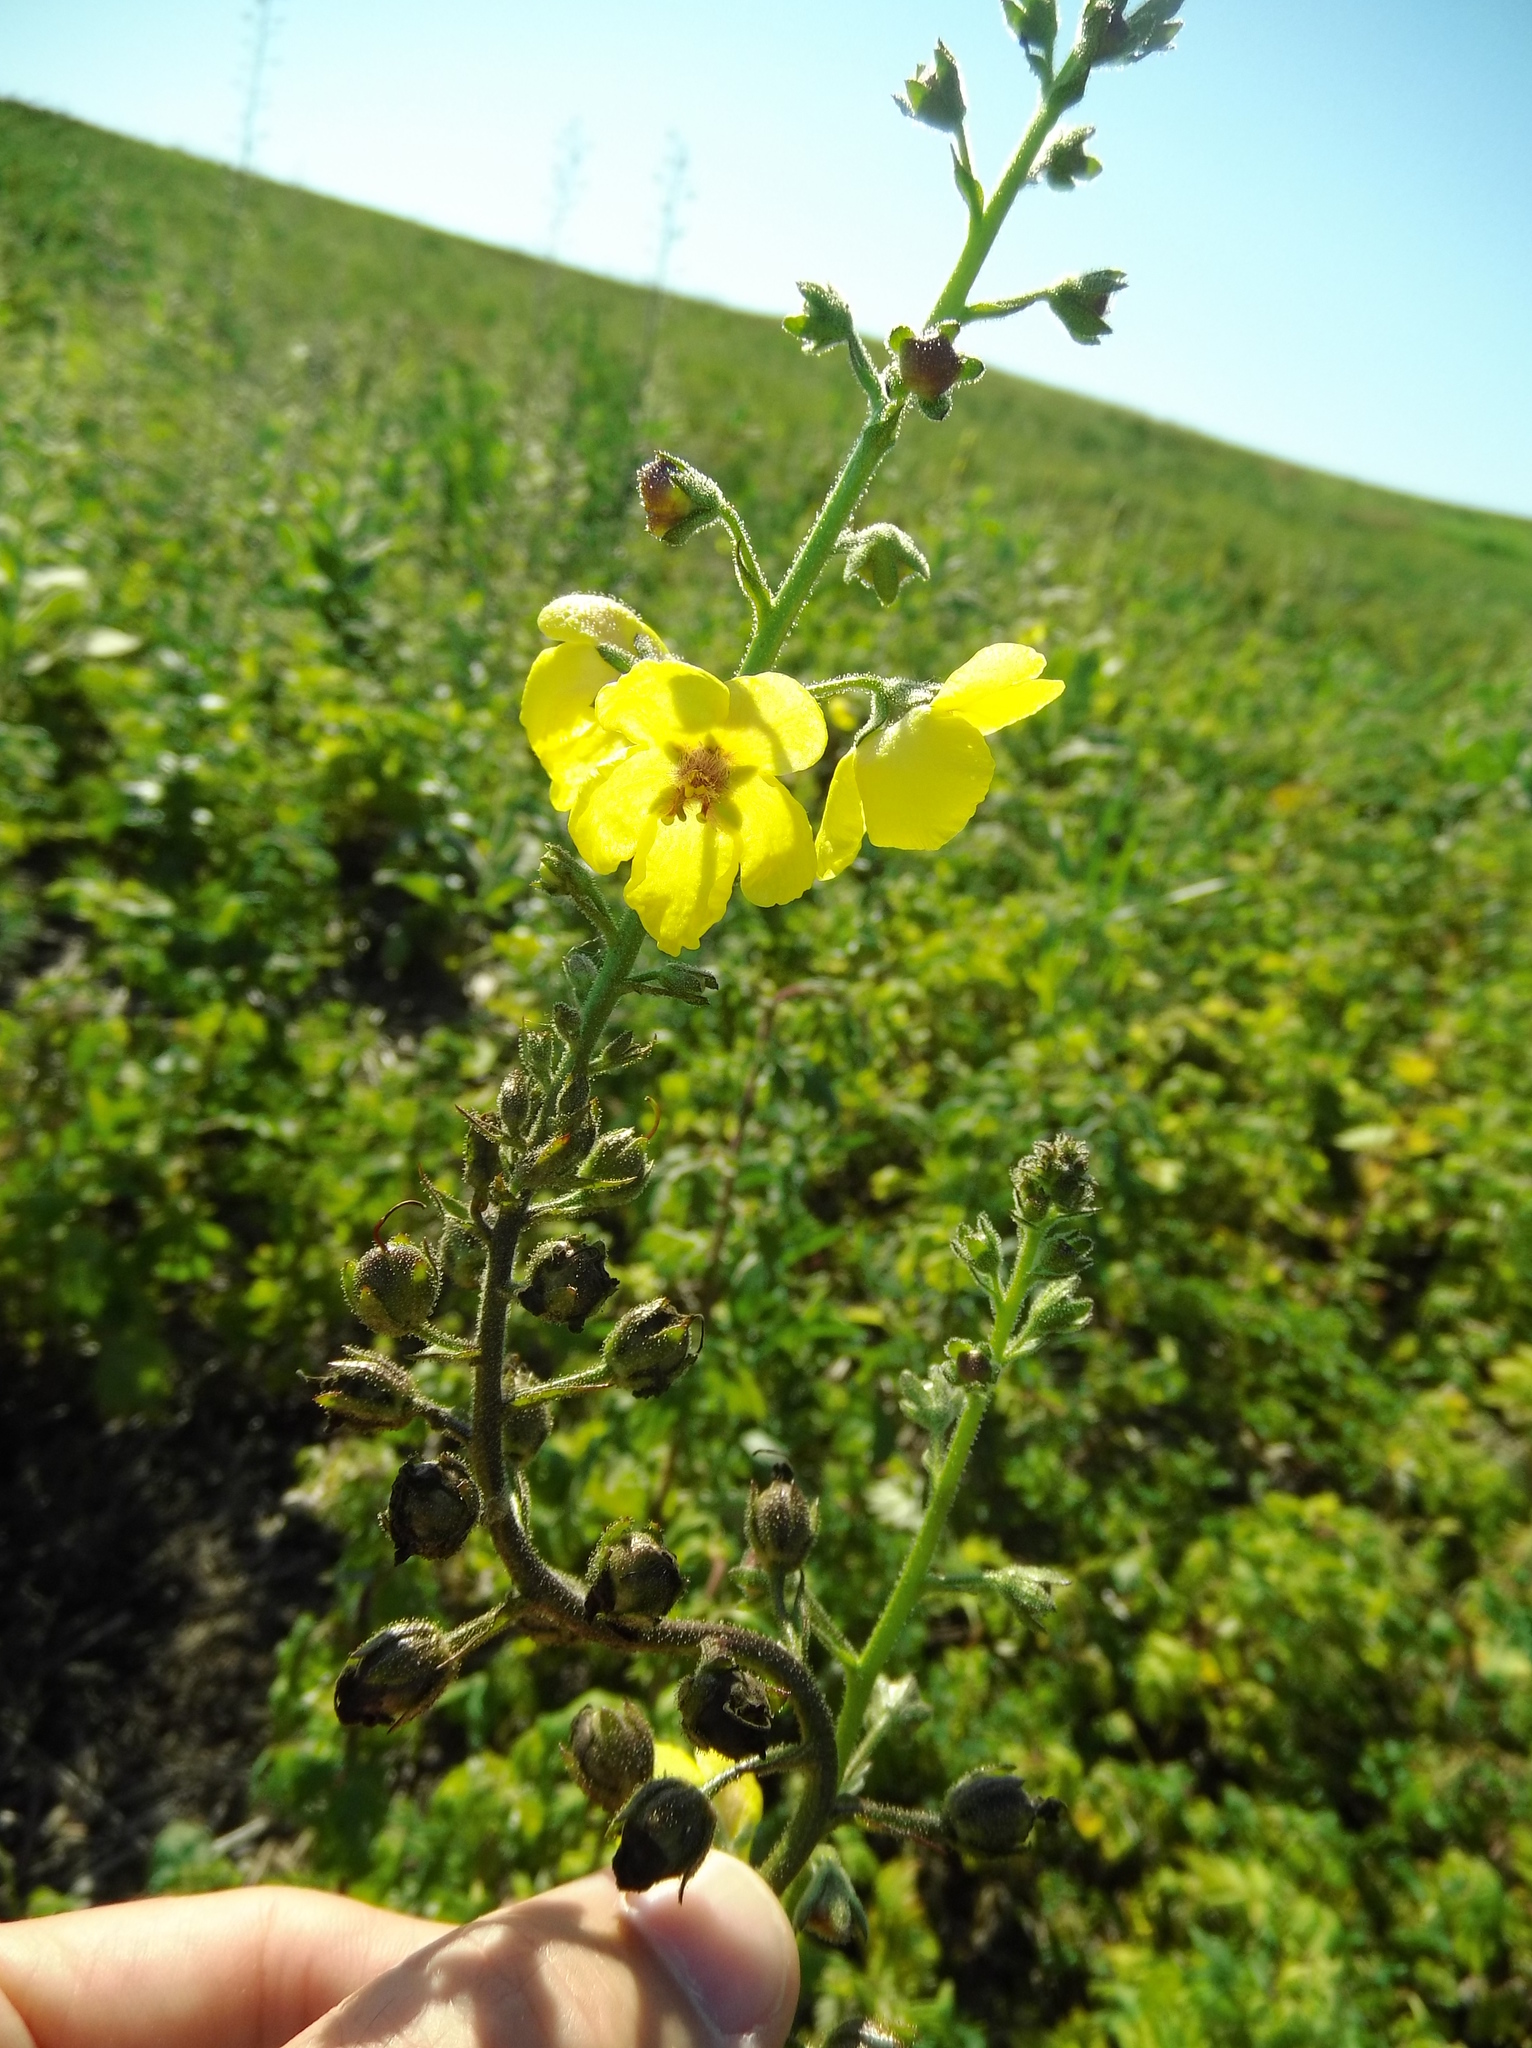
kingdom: Plantae
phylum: Tracheophyta
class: Magnoliopsida
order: Lamiales
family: Scrophulariaceae
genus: Verbascum
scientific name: Verbascum blattaria
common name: Moth mullein
